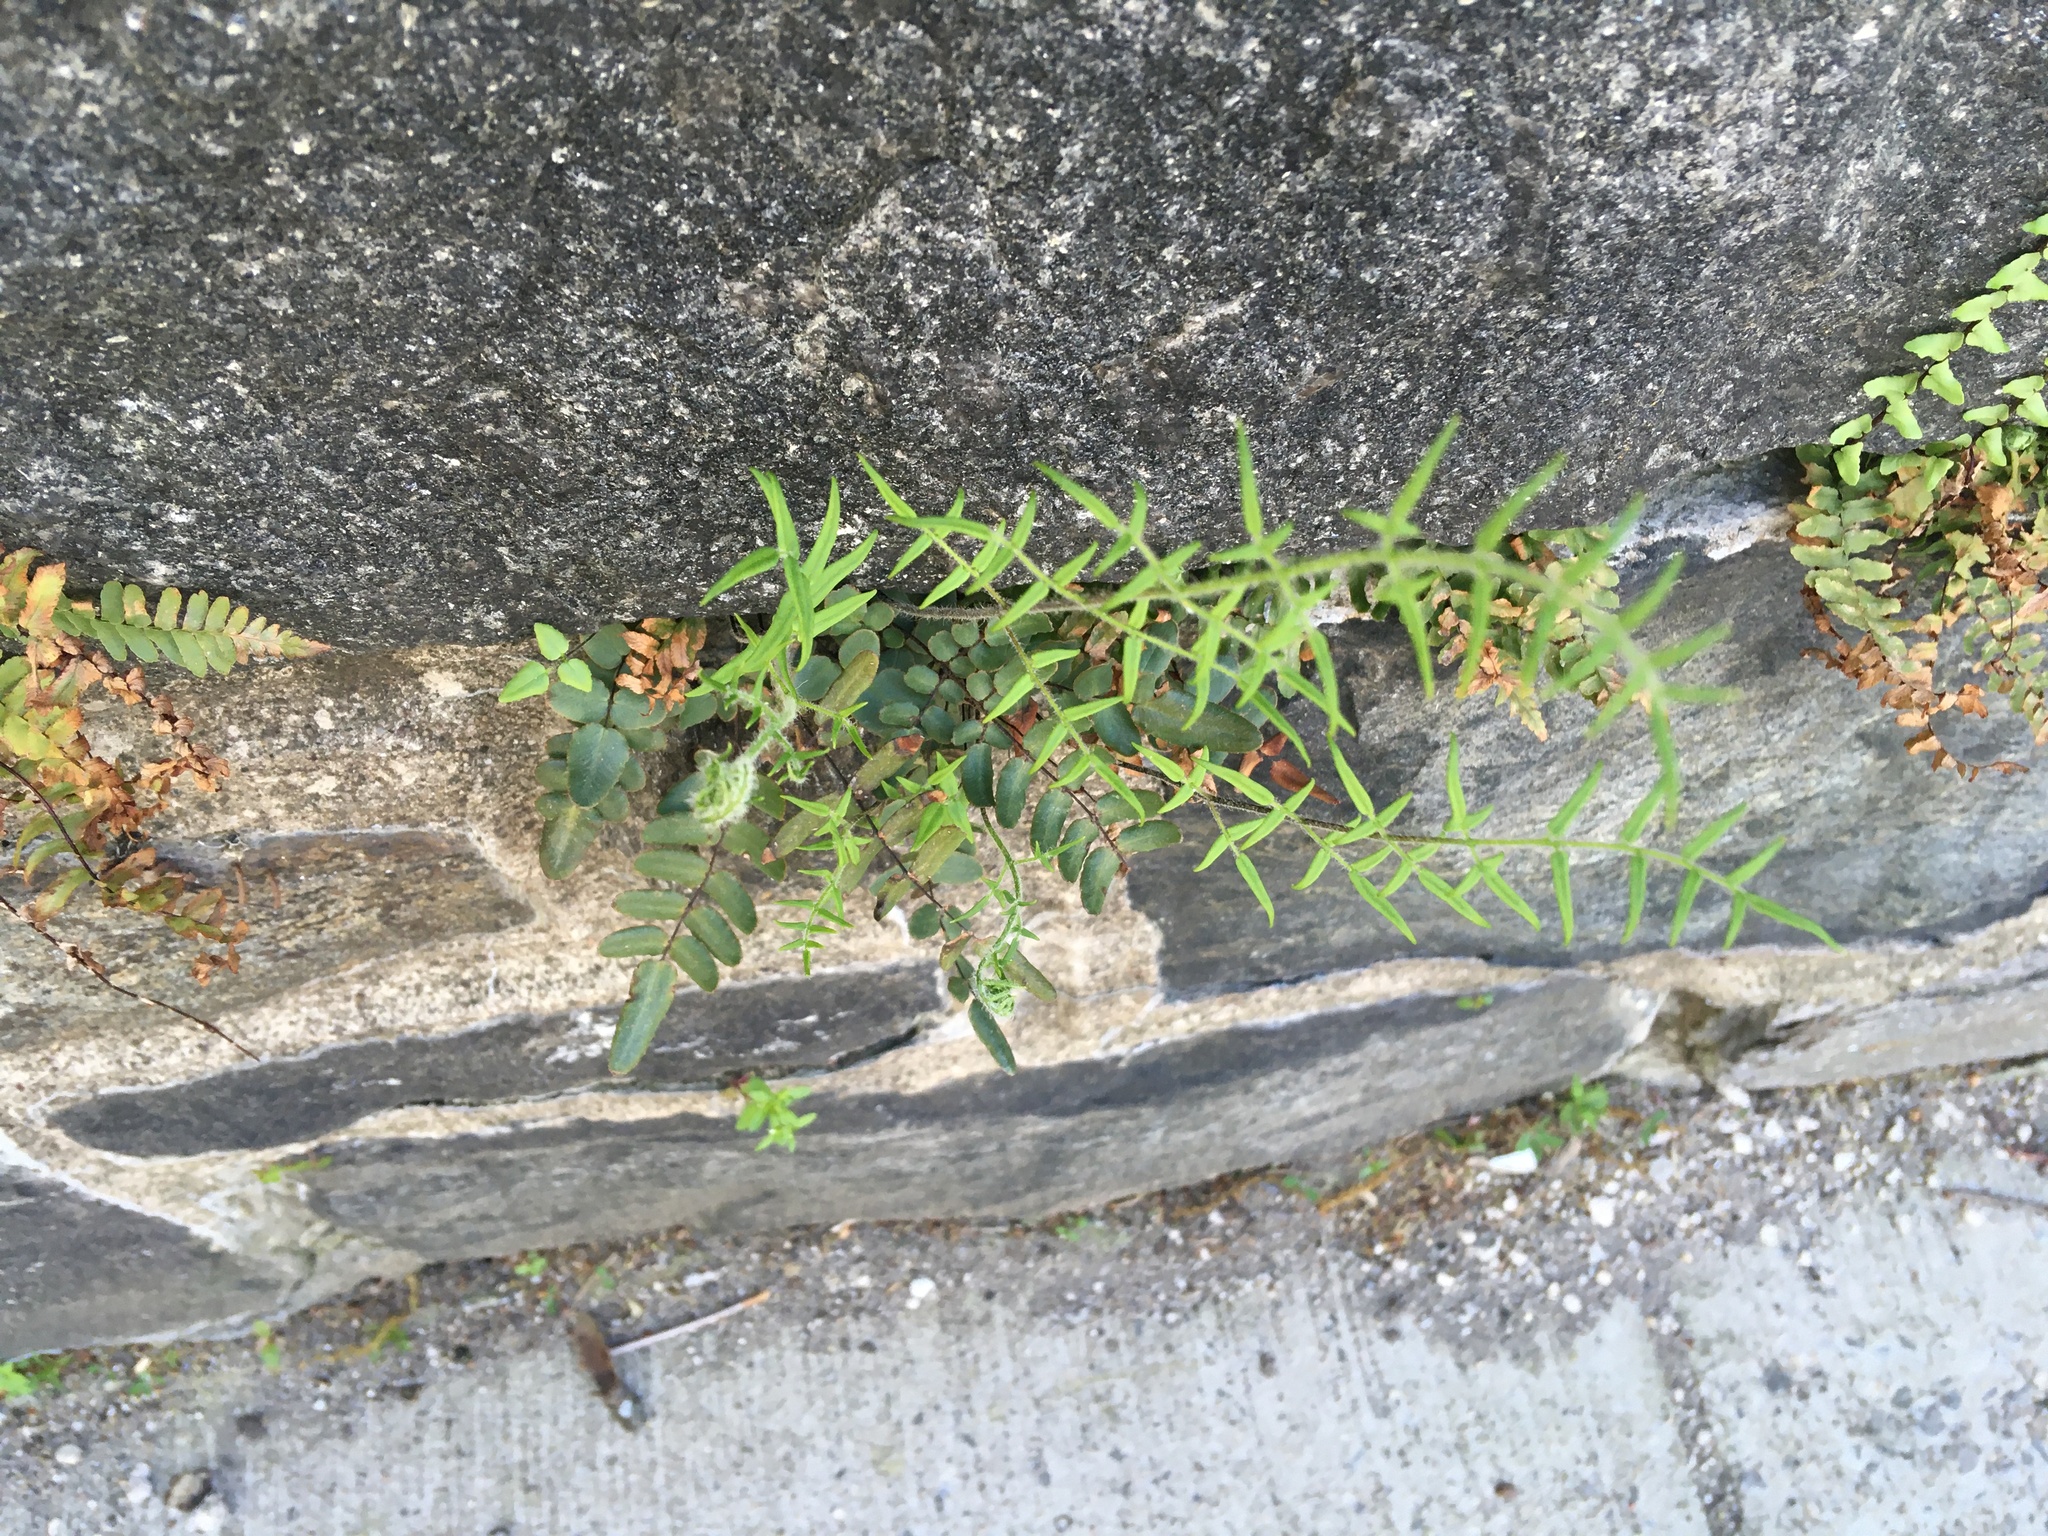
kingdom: Plantae
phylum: Tracheophyta
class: Polypodiopsida
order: Polypodiales
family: Pteridaceae
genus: Pellaea
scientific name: Pellaea atropurpurea
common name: Hairy cliffbrake
